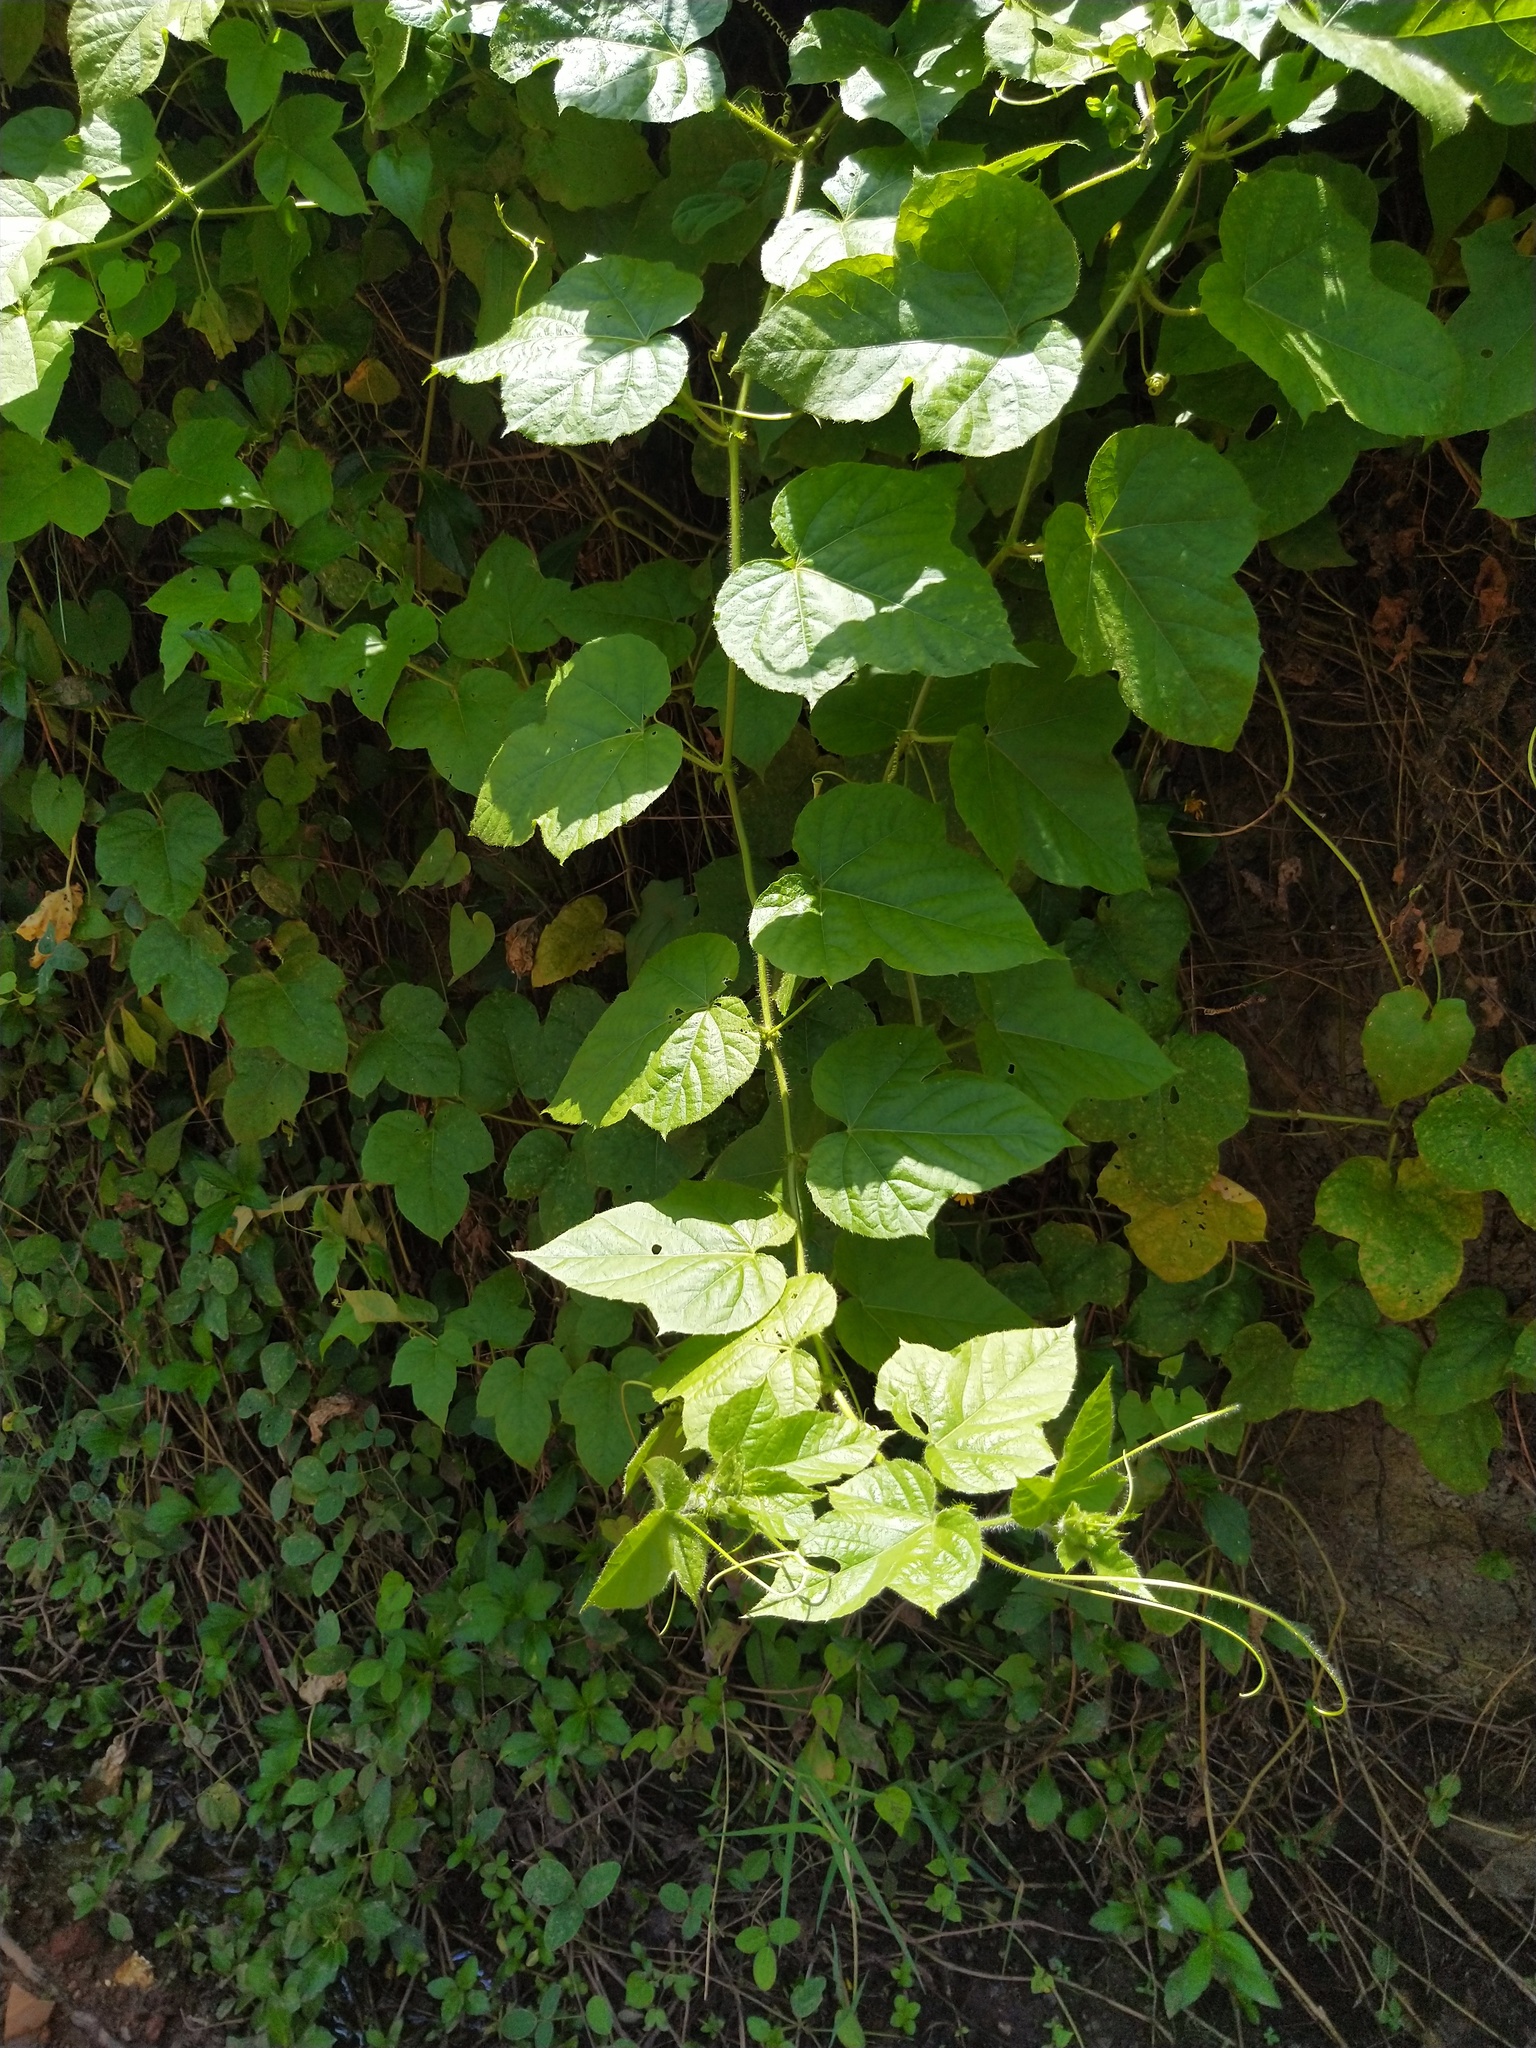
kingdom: Plantae
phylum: Tracheophyta
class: Magnoliopsida
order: Malpighiales
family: Passifloraceae
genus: Passiflora
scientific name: Passiflora foetida
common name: Fetid passionflower
